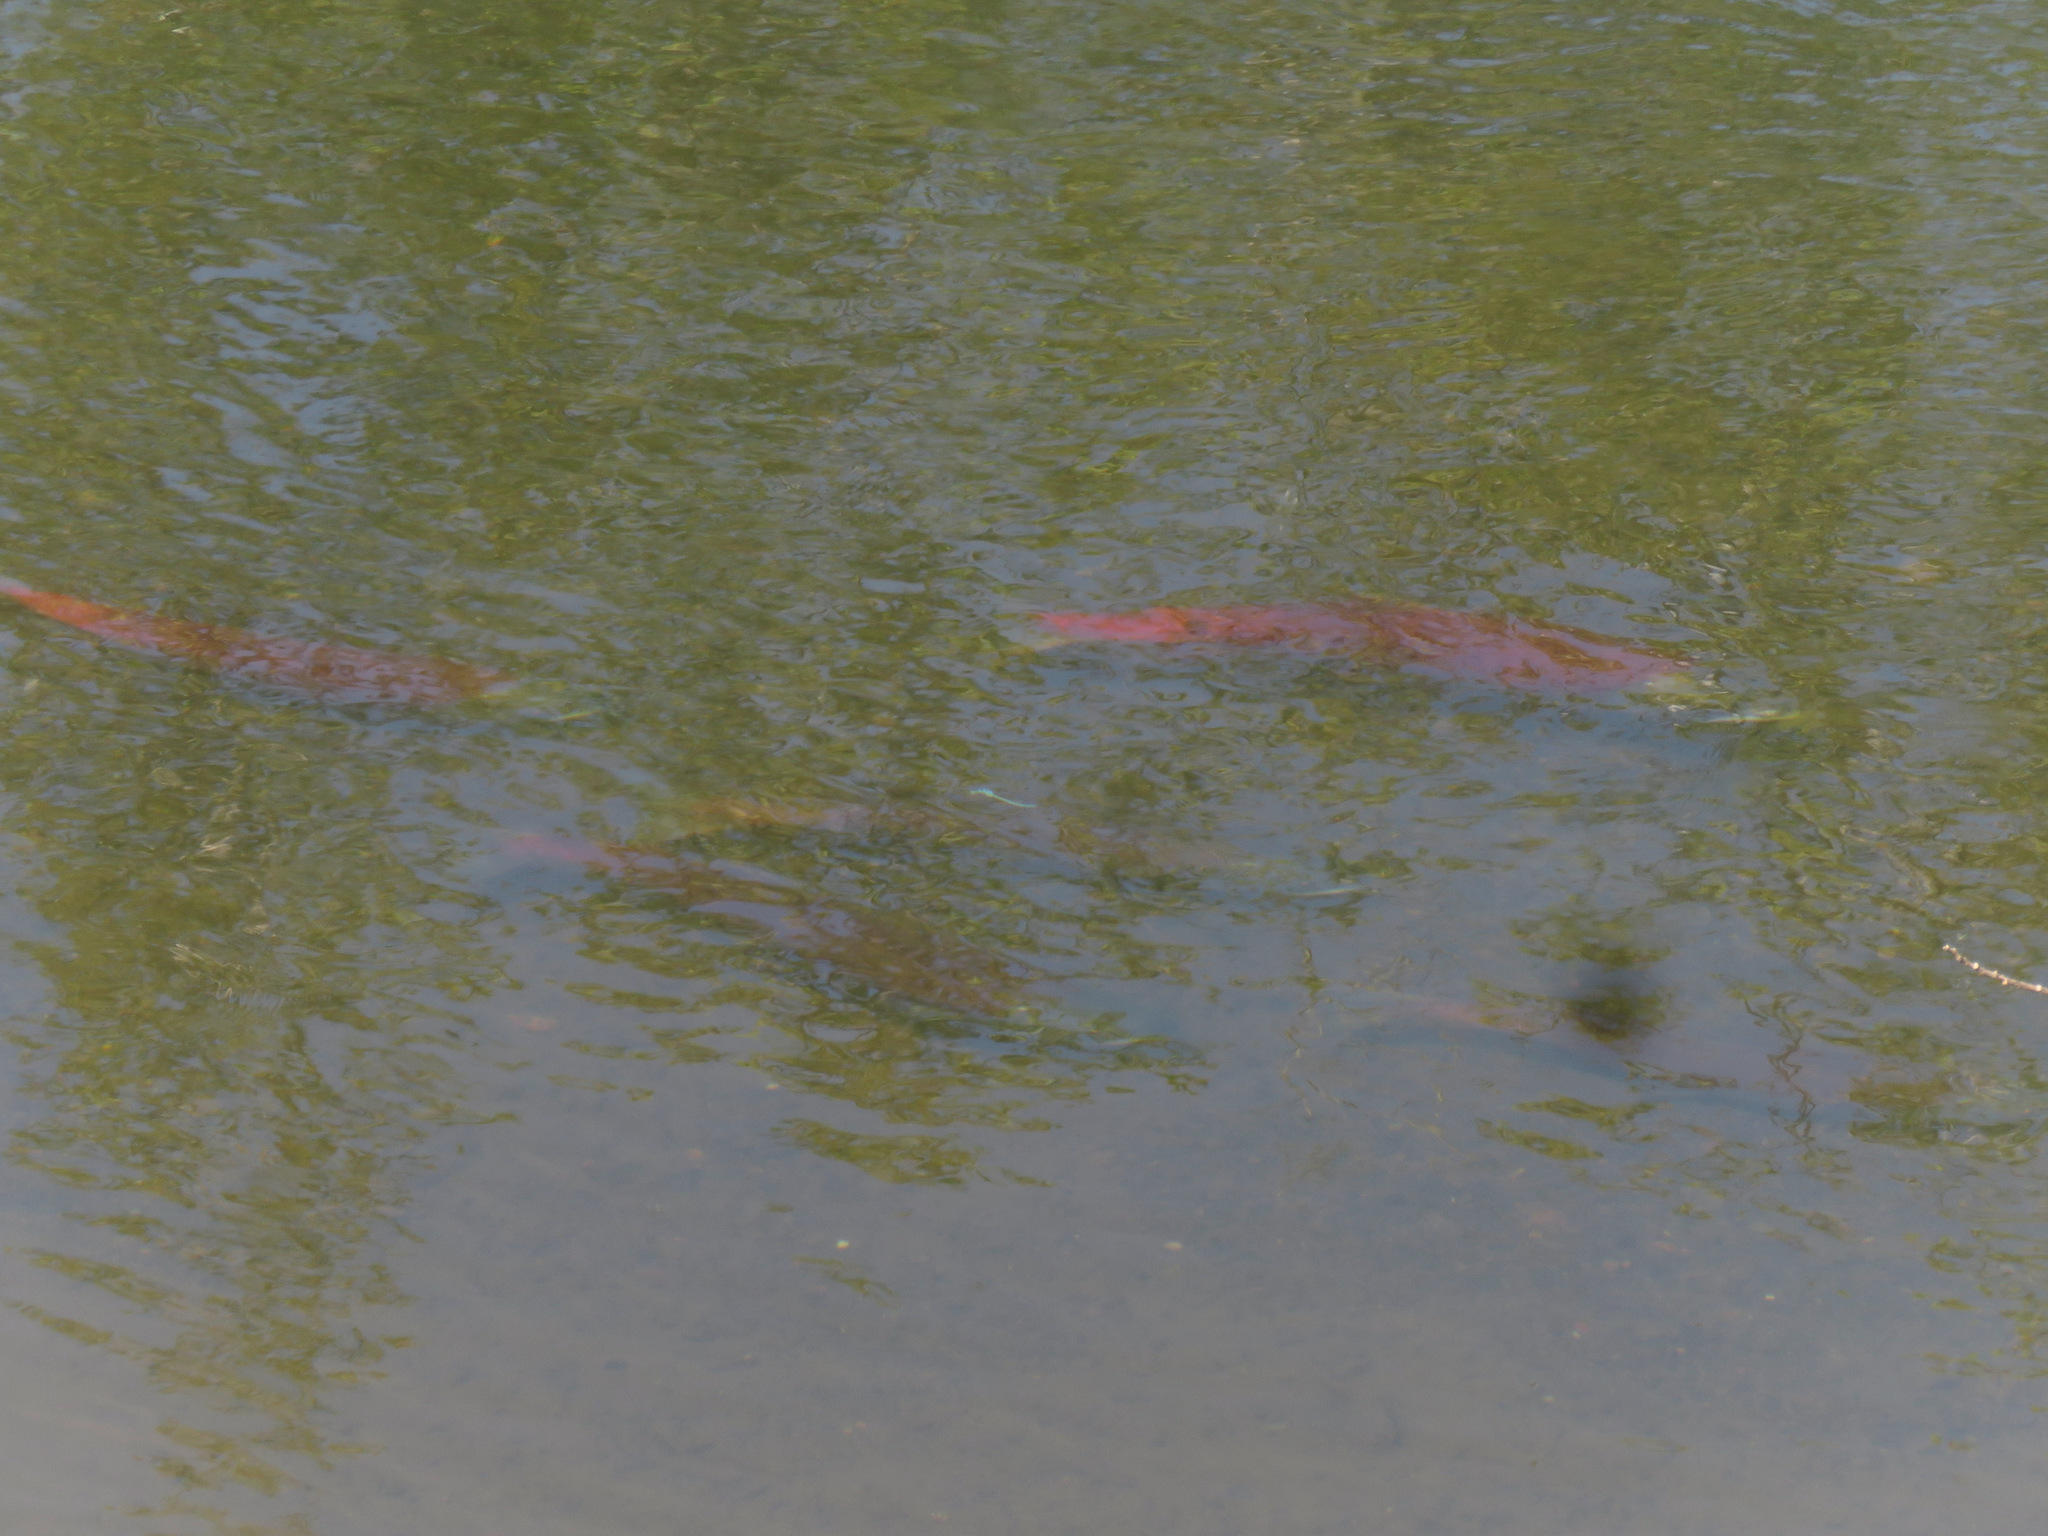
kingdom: Animalia
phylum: Chordata
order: Salmoniformes
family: Salmonidae
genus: Oncorhynchus
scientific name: Oncorhynchus nerka
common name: Sockeye salmon
